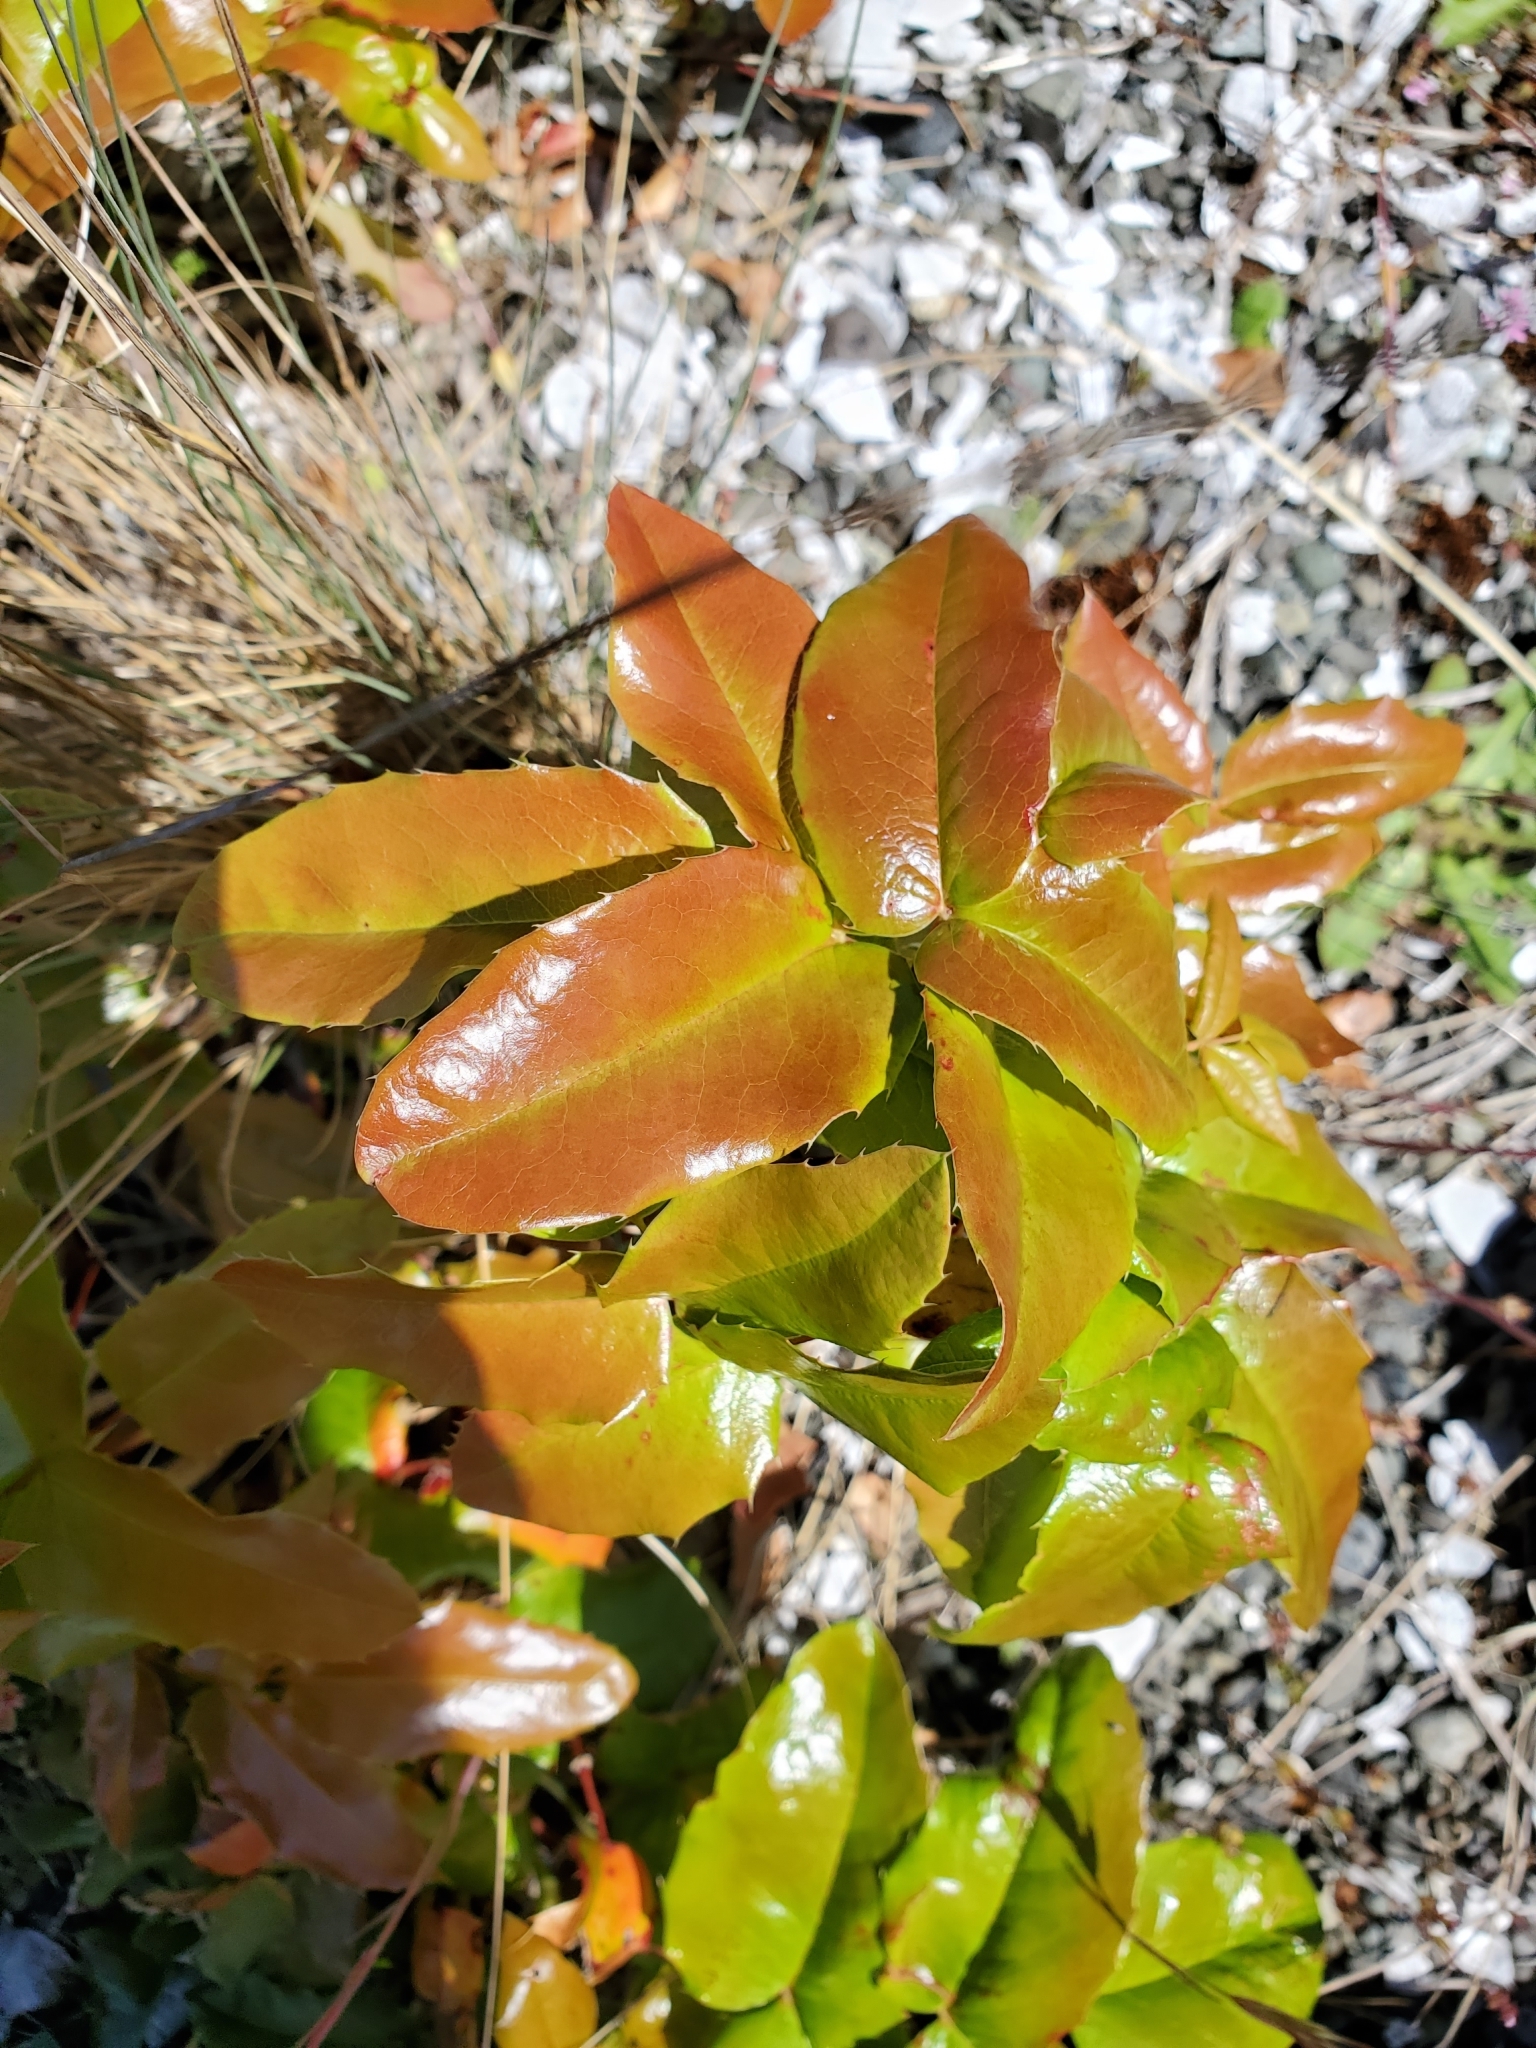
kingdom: Plantae
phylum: Tracheophyta
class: Magnoliopsida
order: Ranunculales
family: Berberidaceae
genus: Mahonia
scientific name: Mahonia aquifolium
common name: Oregon-grape
